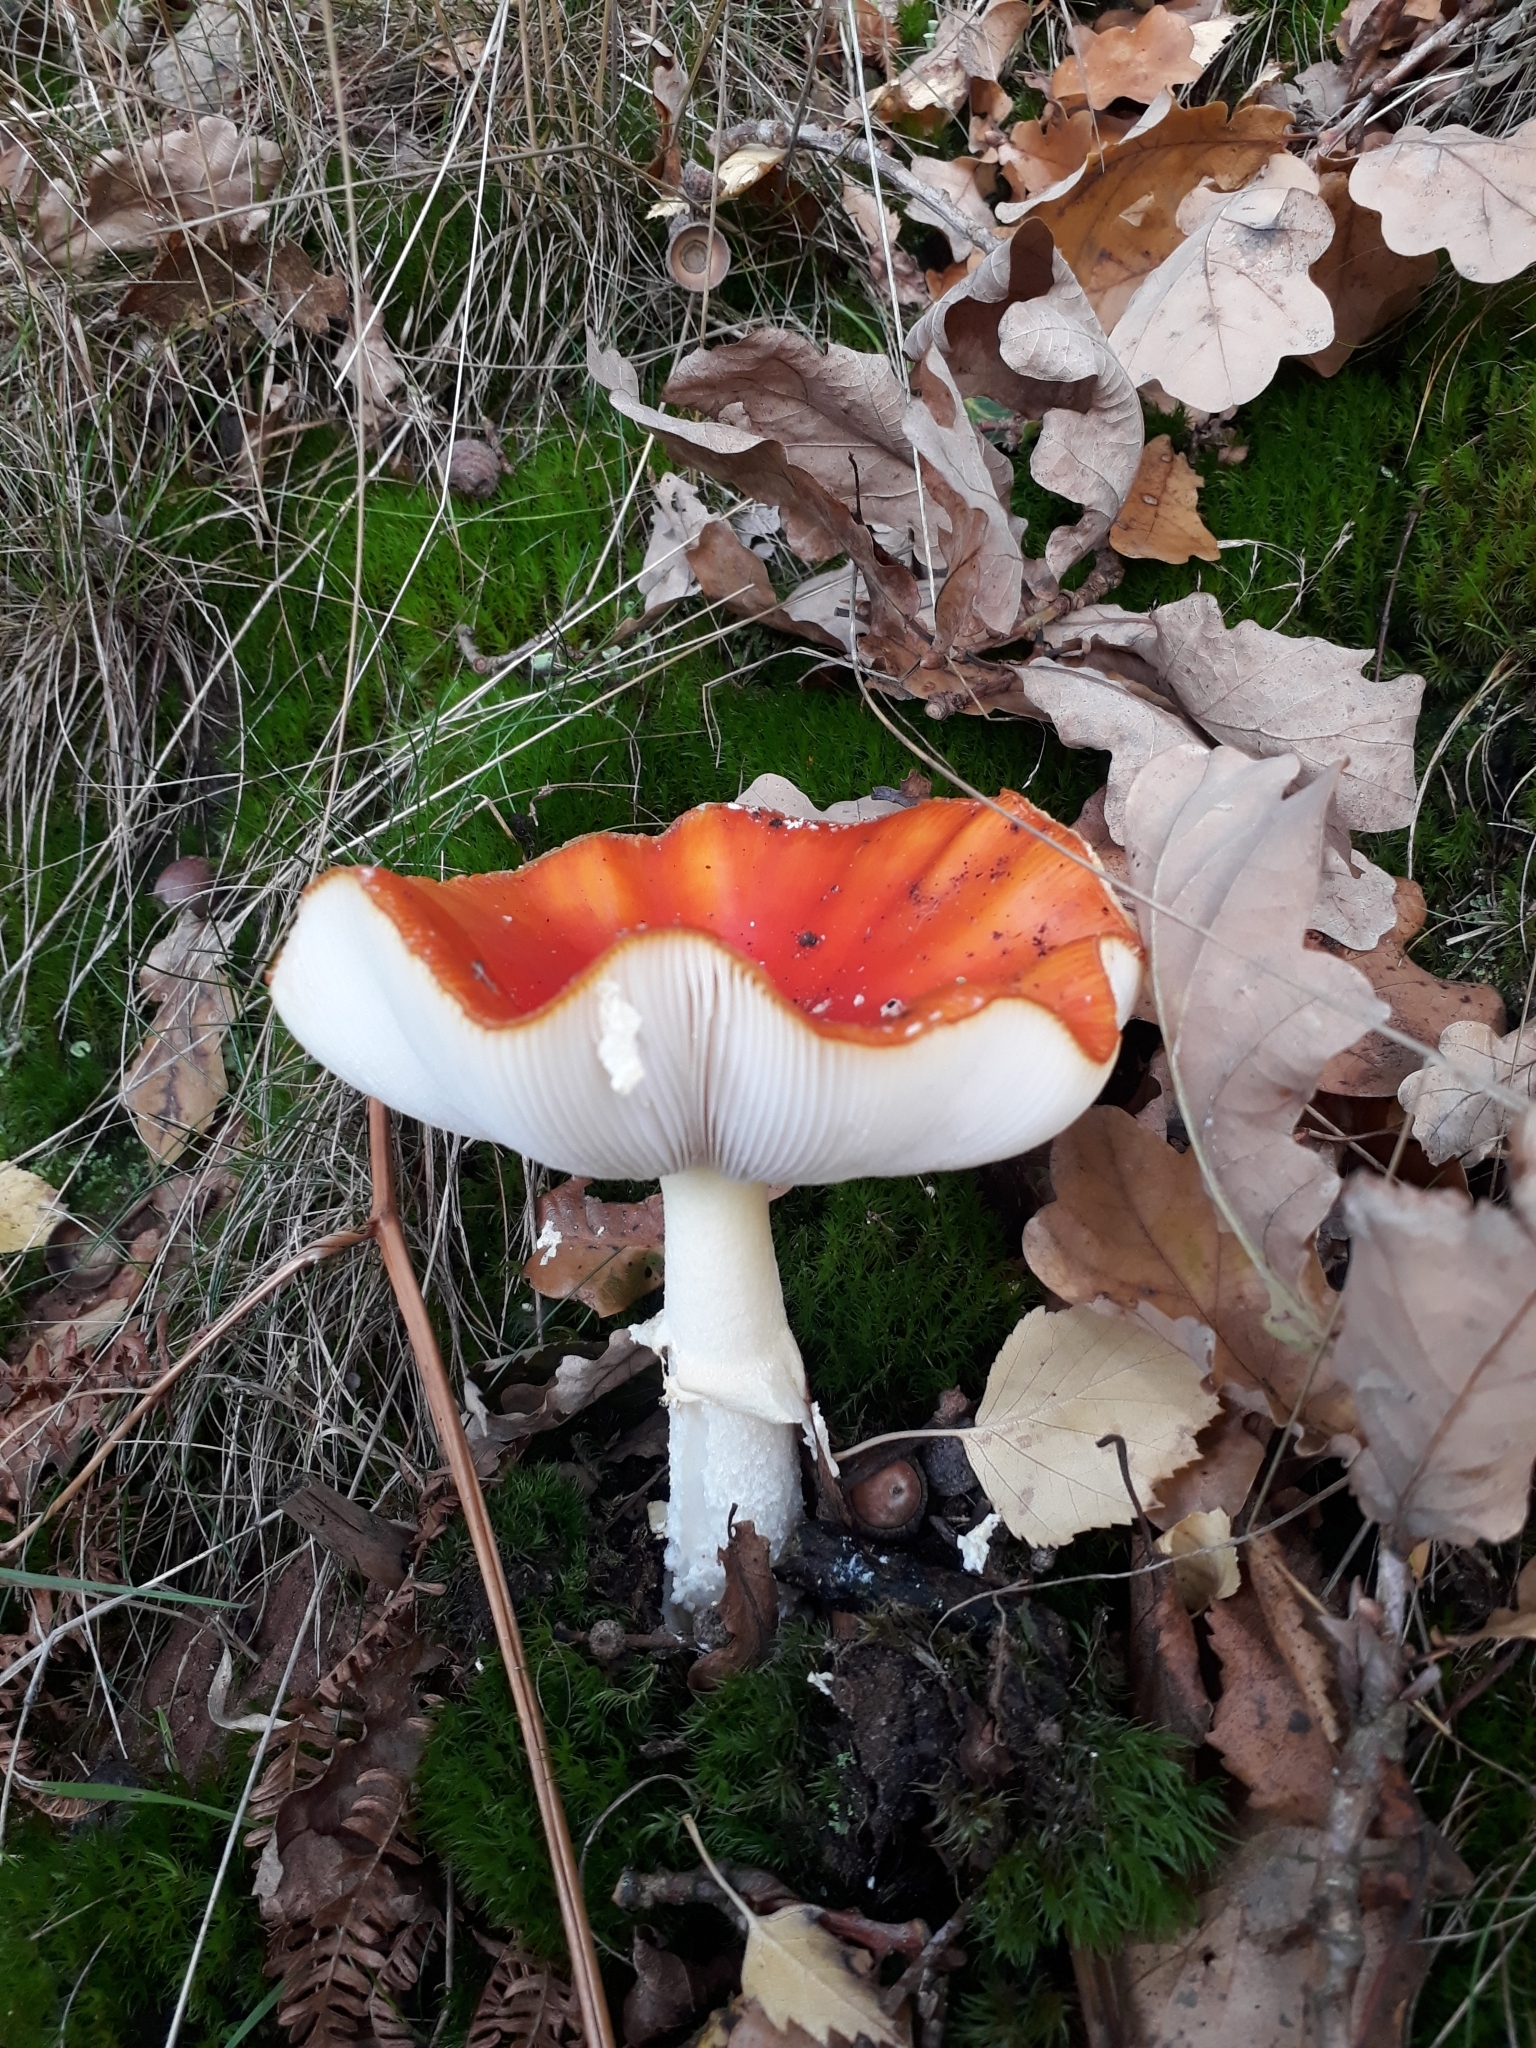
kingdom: Fungi
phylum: Basidiomycota
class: Agaricomycetes
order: Agaricales
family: Amanitaceae
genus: Amanita
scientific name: Amanita muscaria
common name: Fly agaric
